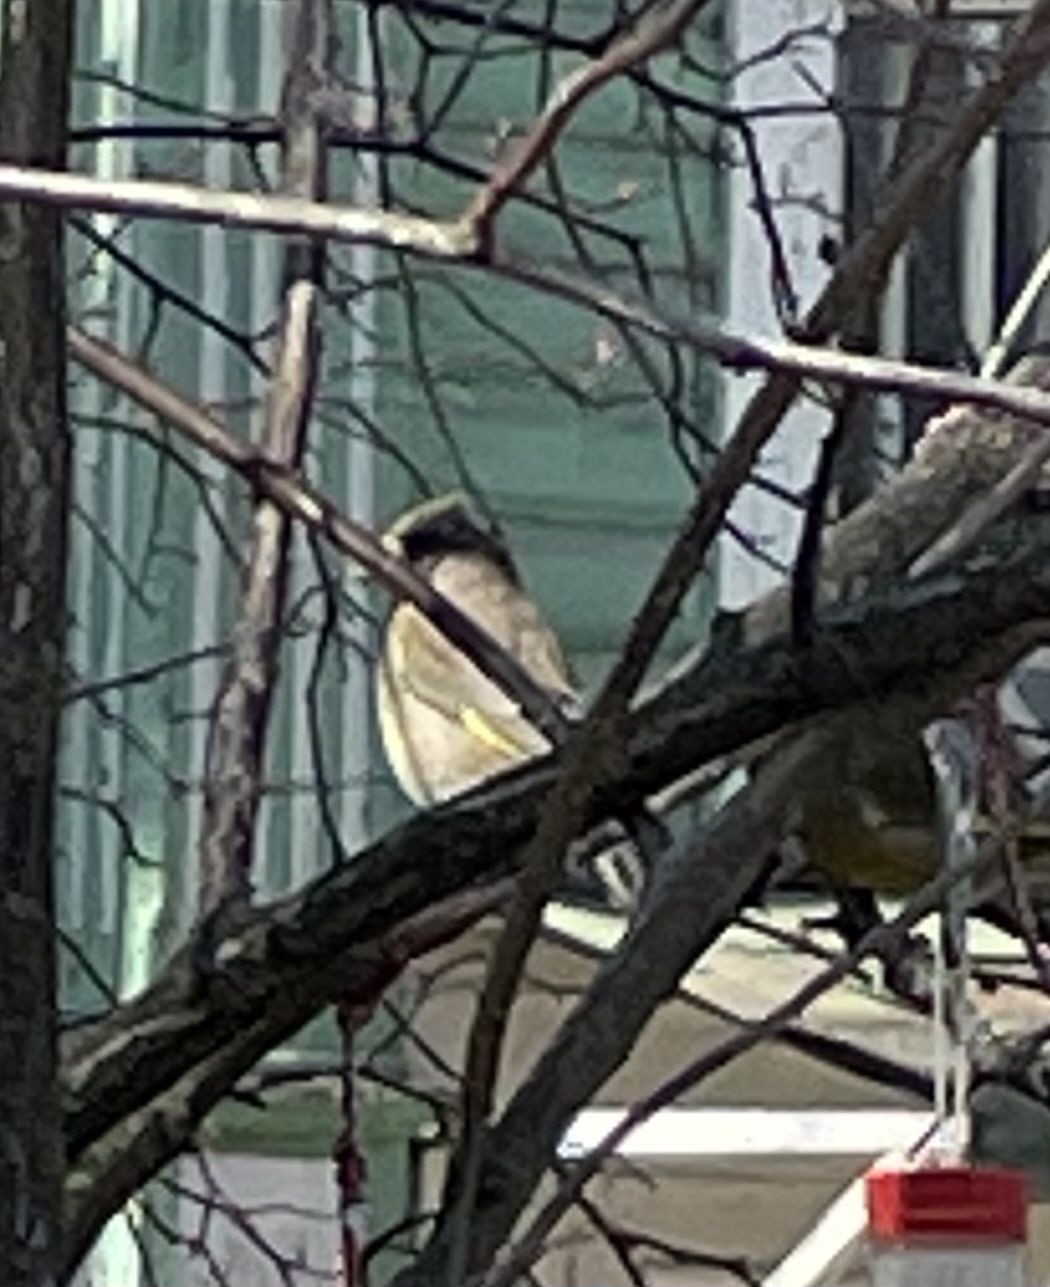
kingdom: Plantae
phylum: Tracheophyta
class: Liliopsida
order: Poales
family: Poaceae
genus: Chloris
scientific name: Chloris chloris
